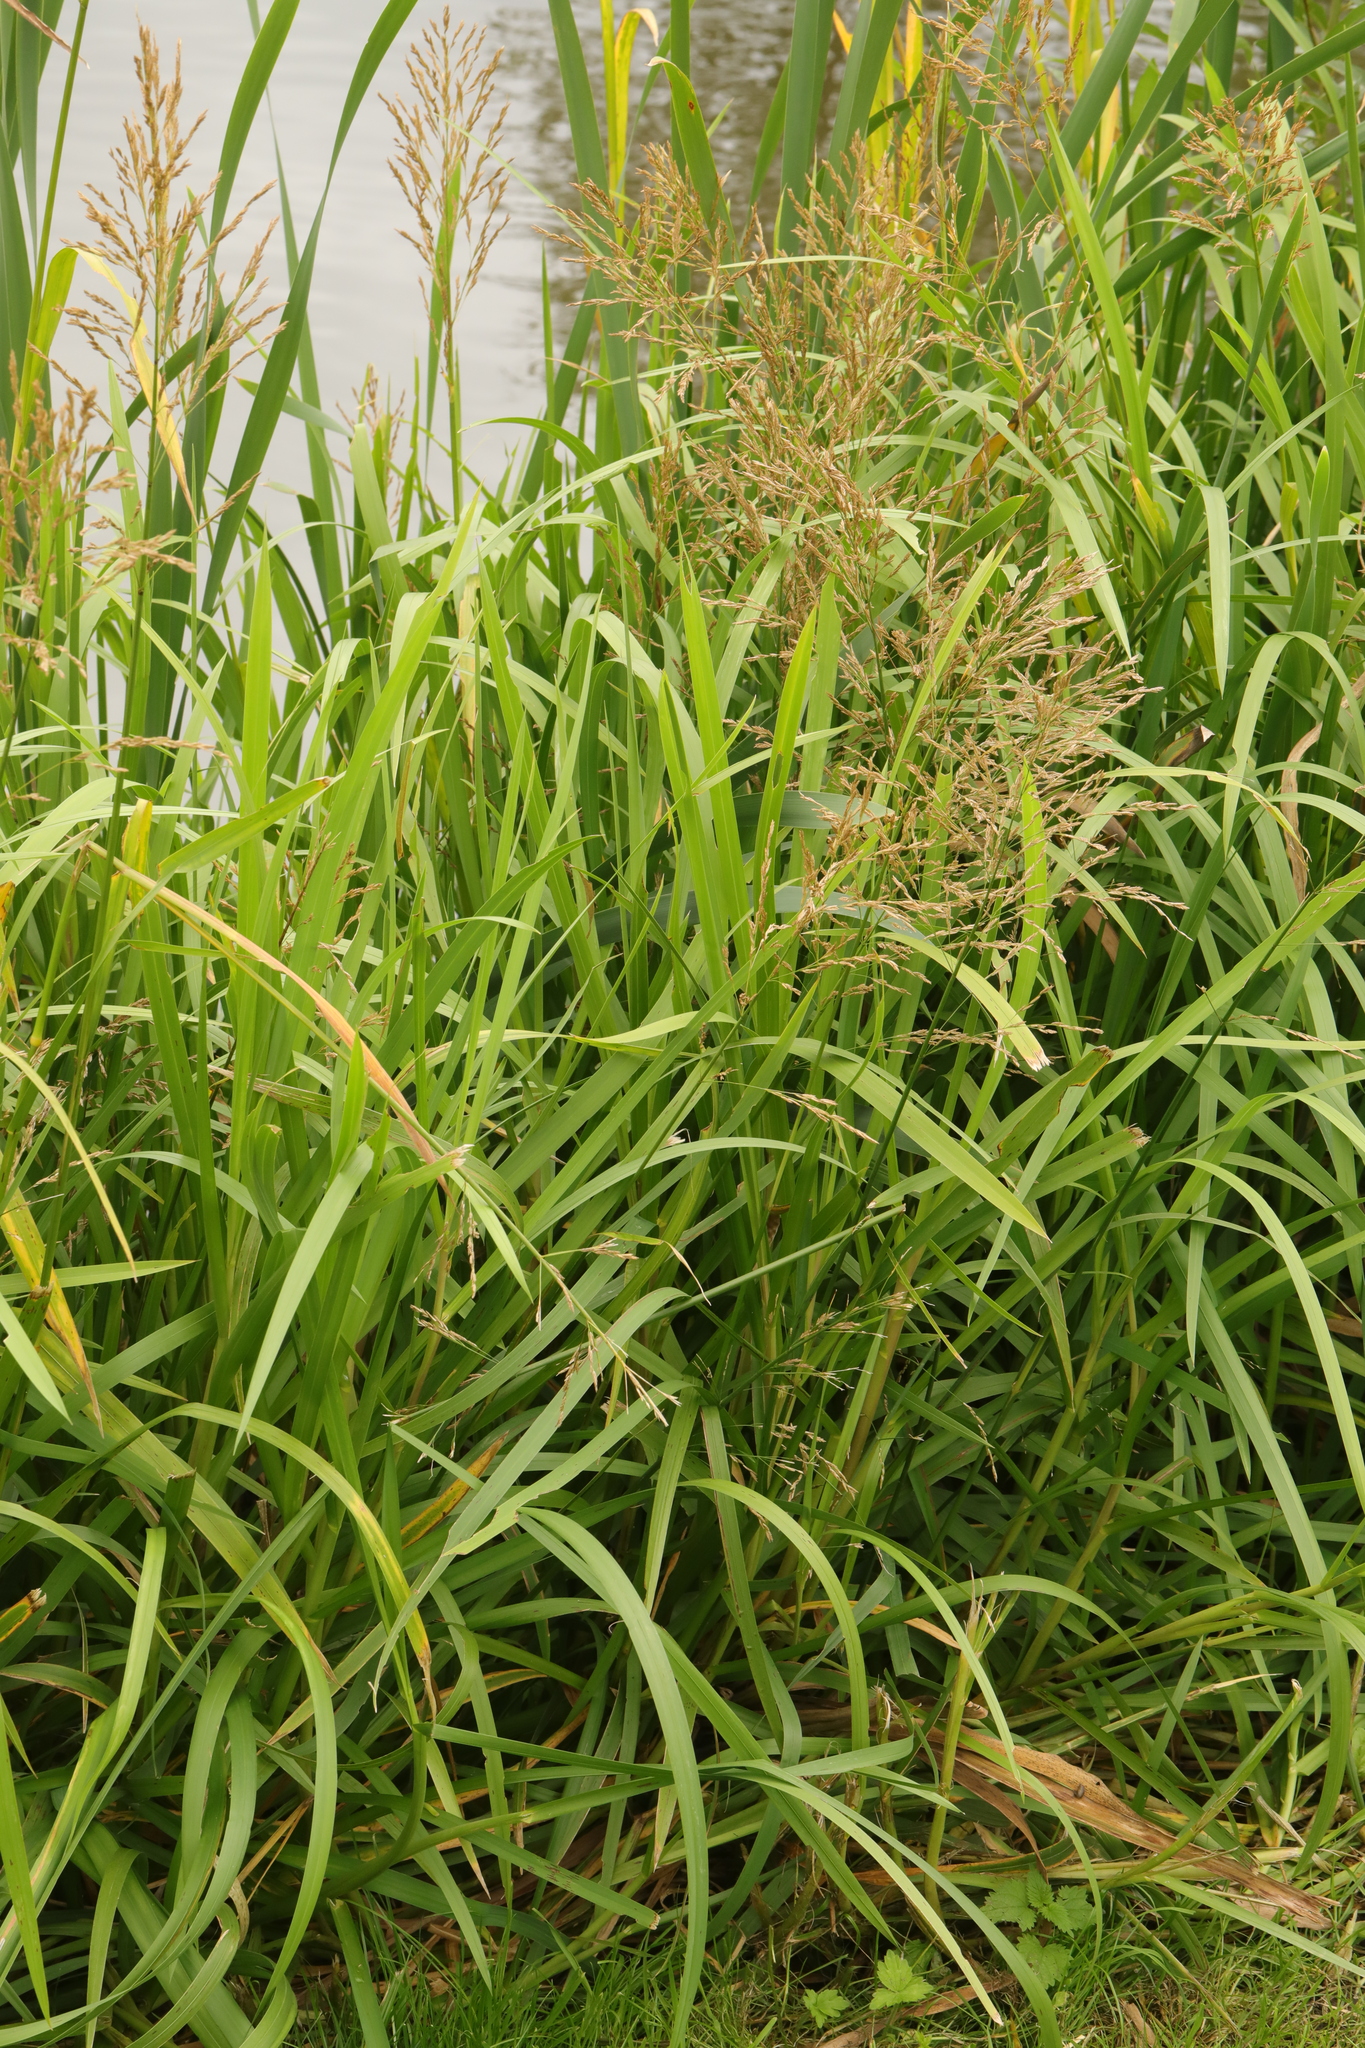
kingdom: Plantae
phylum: Tracheophyta
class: Liliopsida
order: Poales
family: Poaceae
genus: Glyceria
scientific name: Glyceria maxima
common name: Reed mannagrass
